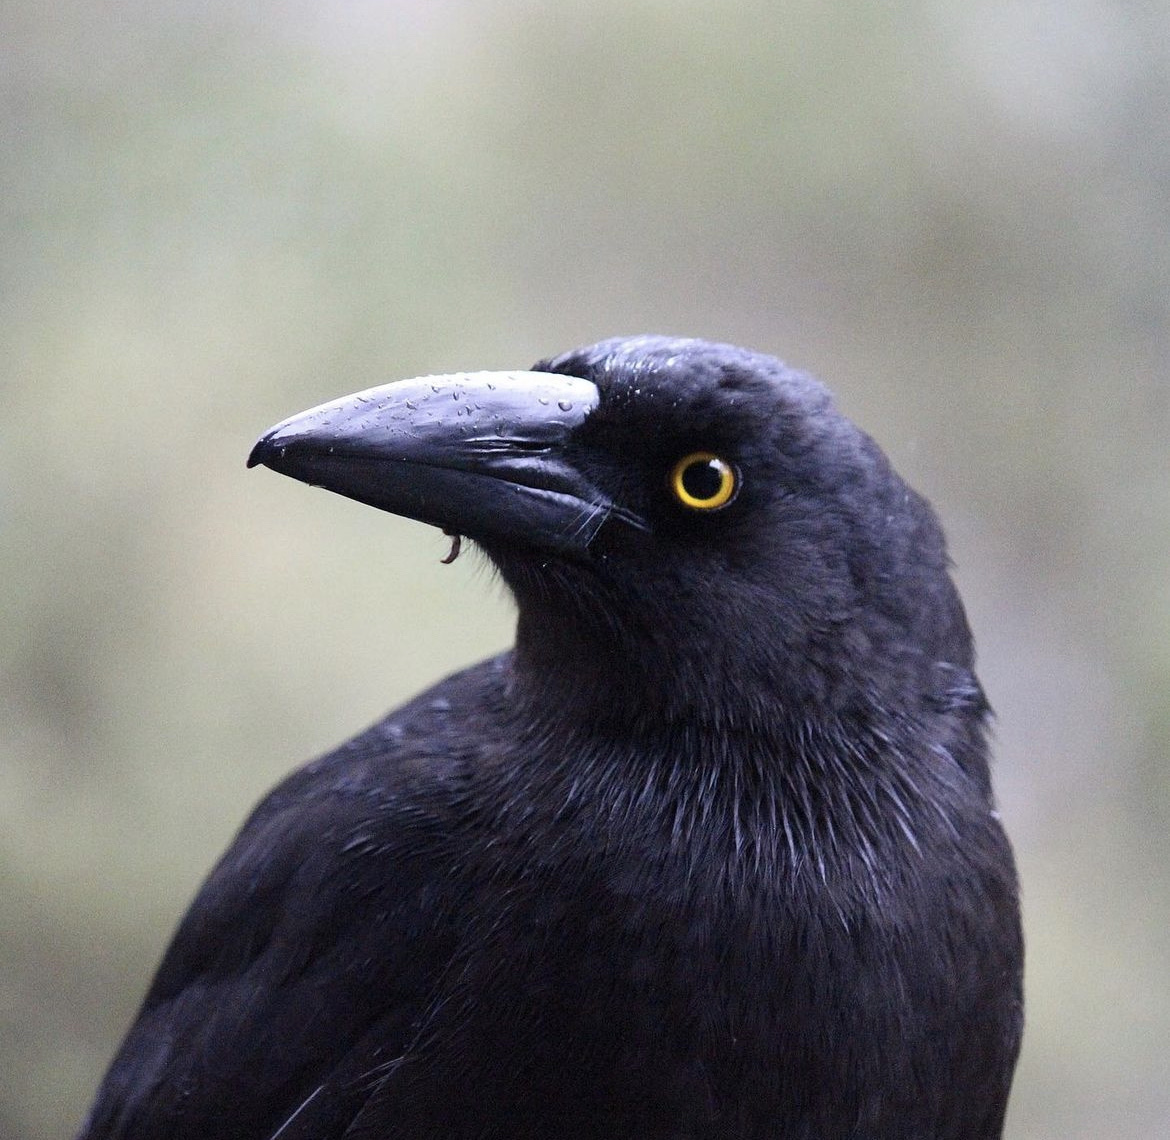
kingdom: Animalia
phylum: Chordata
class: Aves
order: Passeriformes
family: Cracticidae
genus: Strepera
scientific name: Strepera fuliginosa
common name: Black currawong
